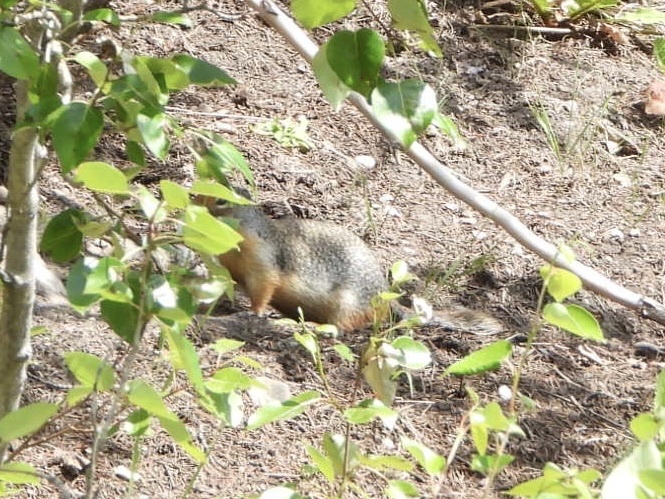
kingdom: Animalia
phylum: Chordata
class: Mammalia
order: Rodentia
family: Sciuridae
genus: Urocitellus
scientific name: Urocitellus columbianus
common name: Columbian ground squirrel
